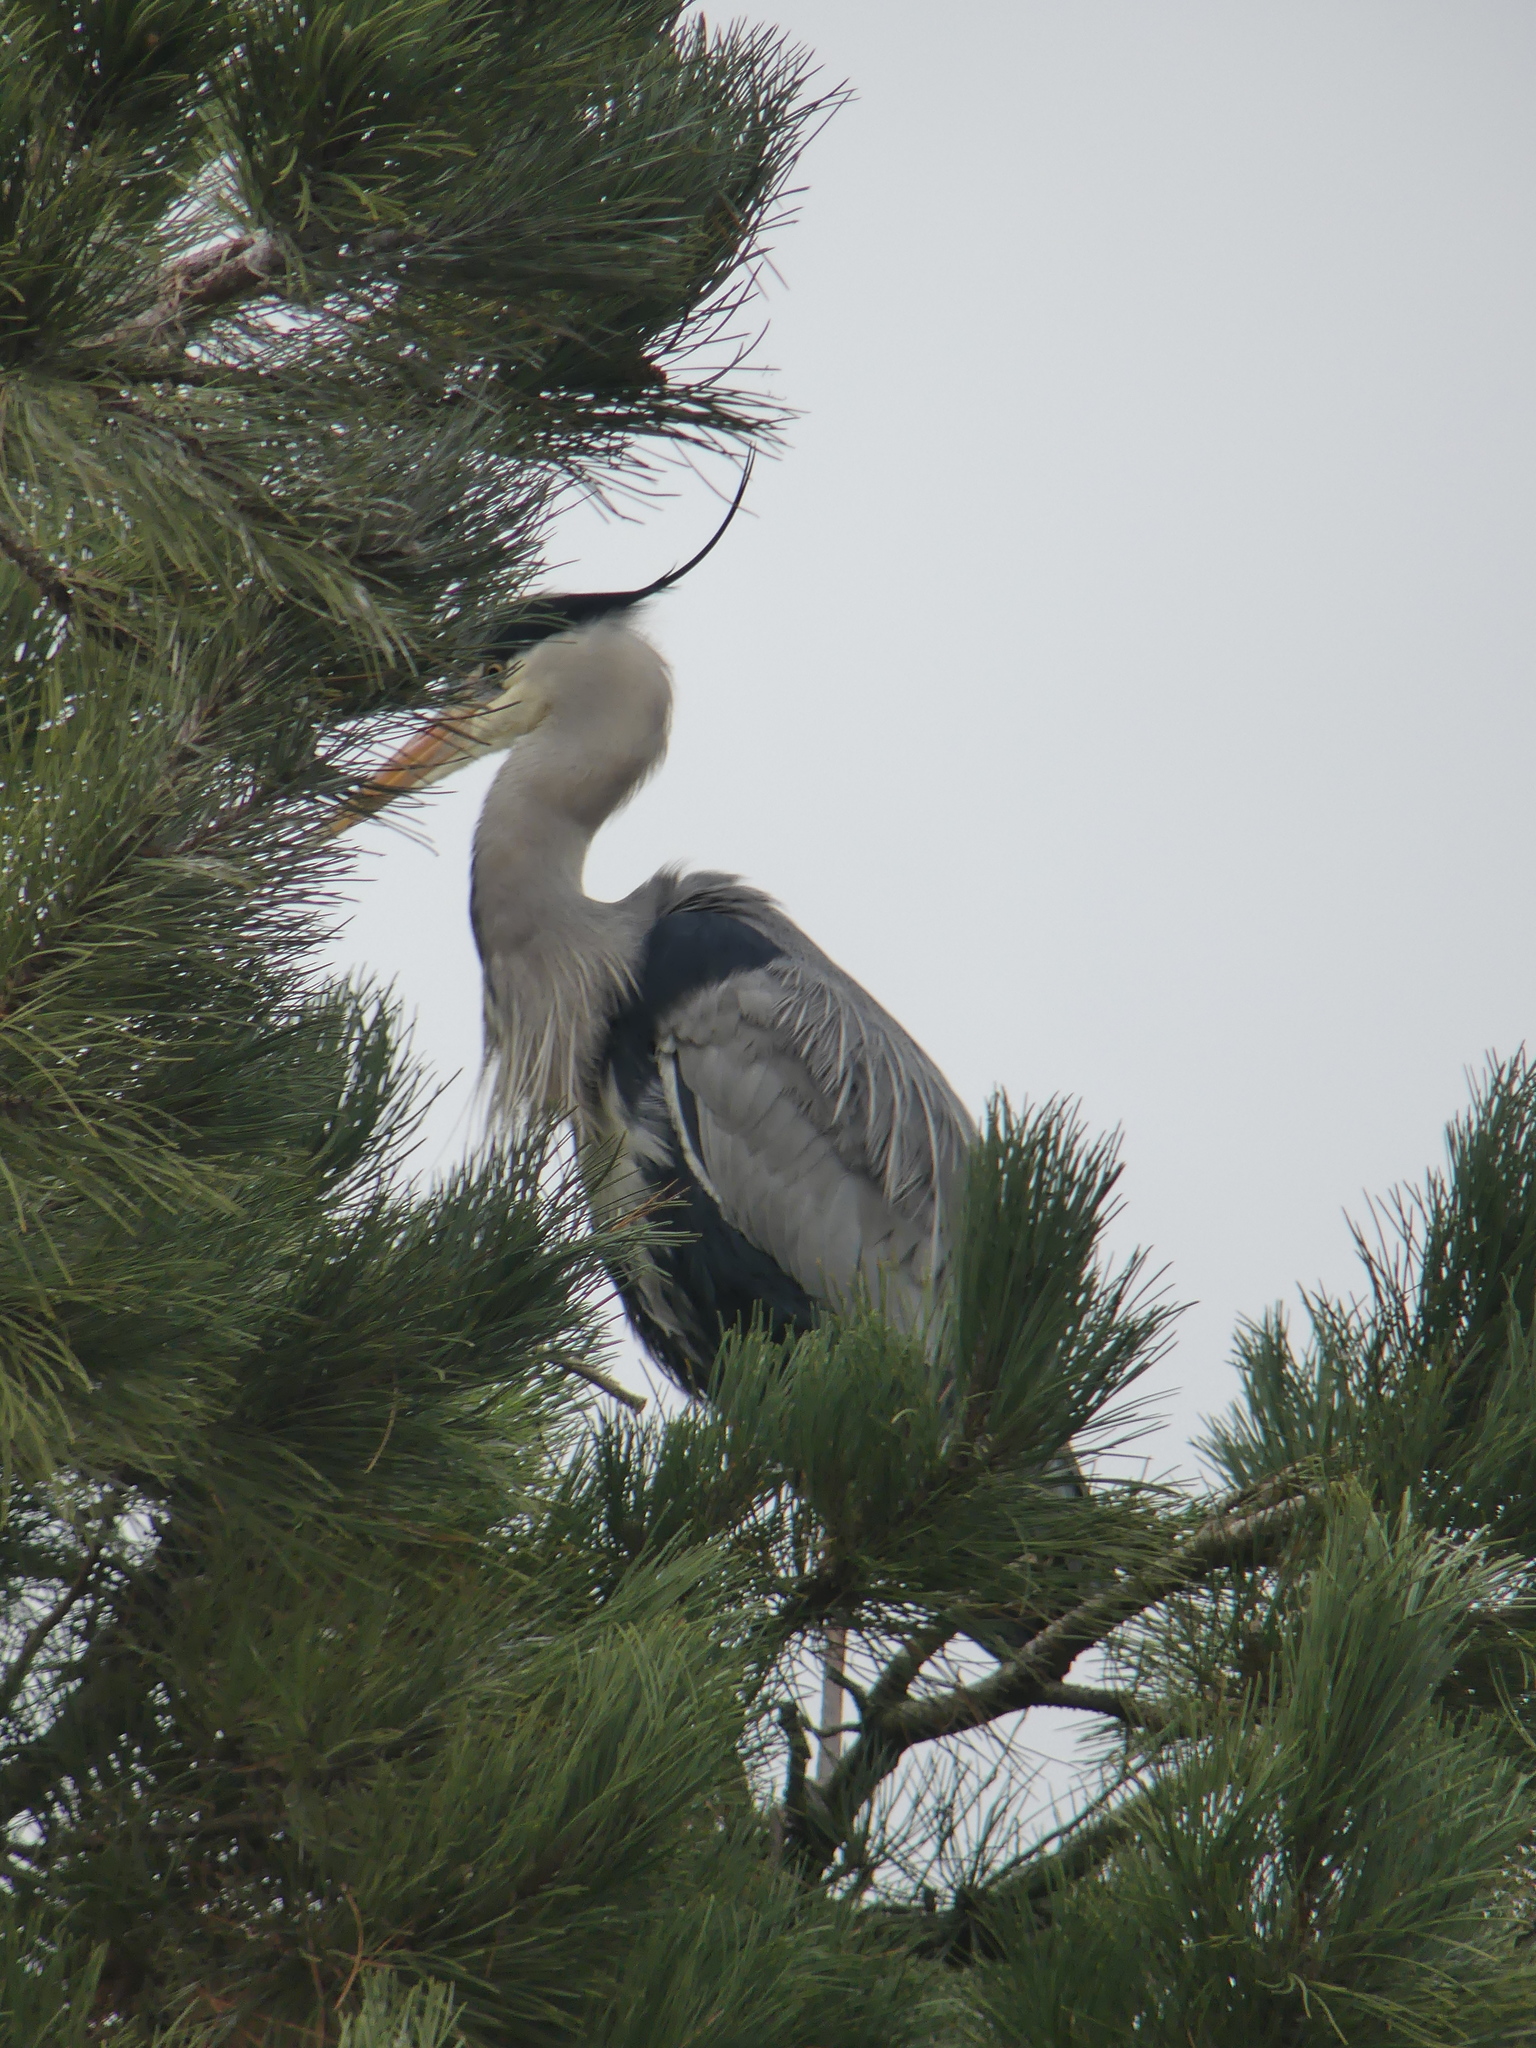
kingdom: Animalia
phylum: Chordata
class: Aves
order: Pelecaniformes
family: Ardeidae
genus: Ardea
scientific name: Ardea cinerea
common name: Grey heron
